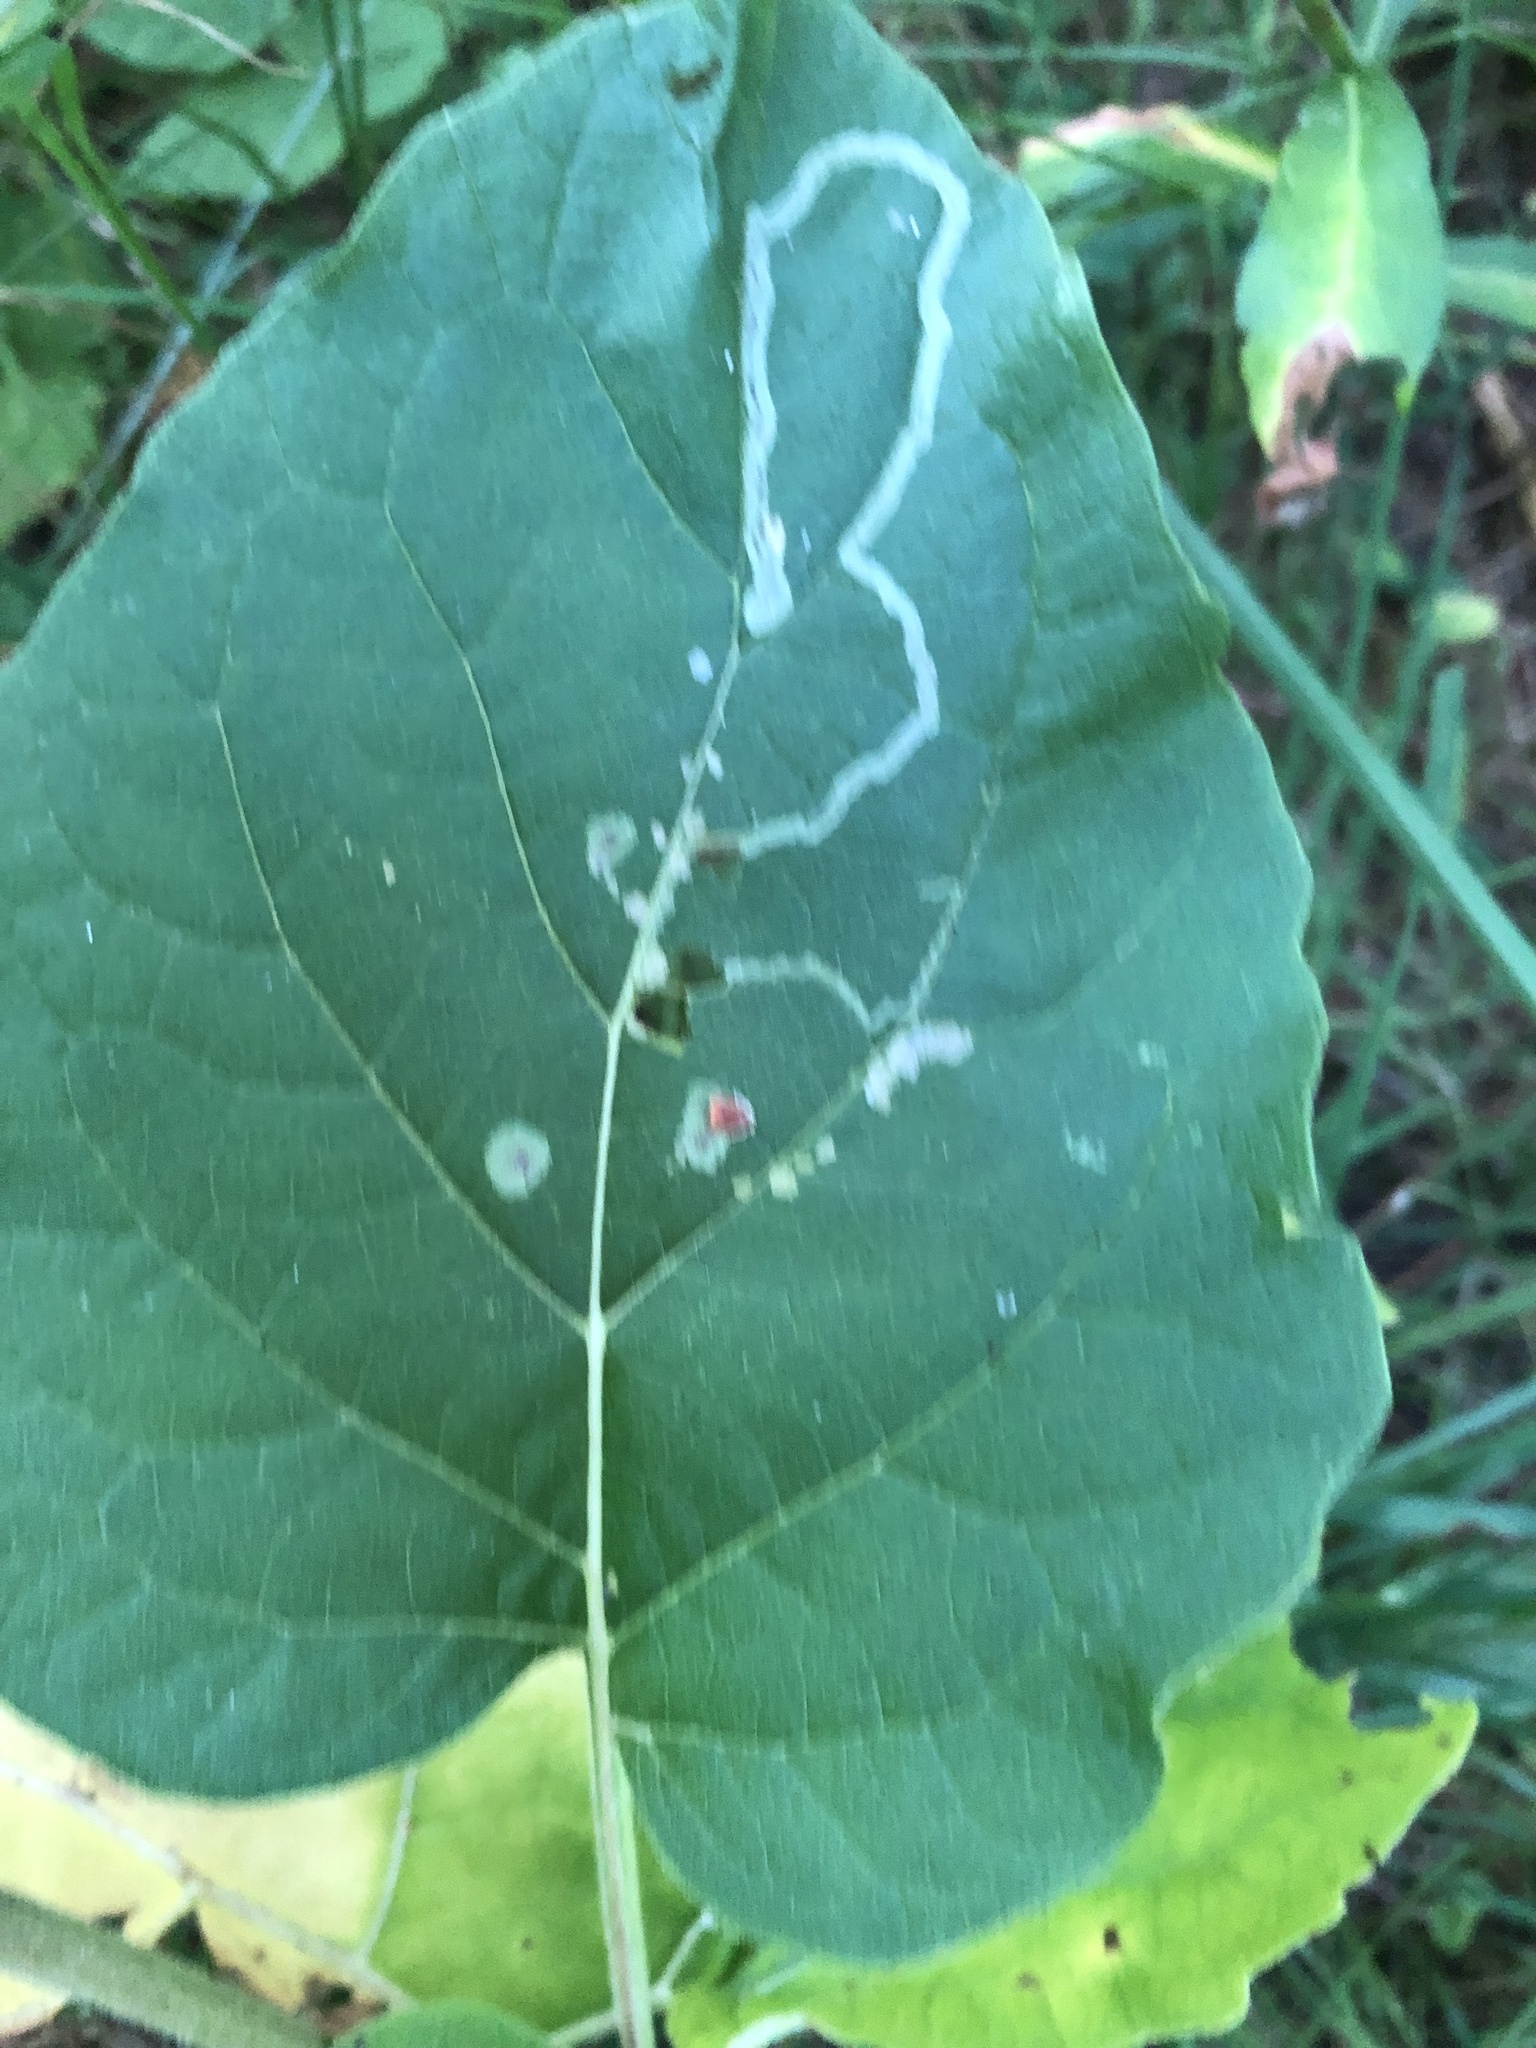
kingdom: Animalia
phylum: Arthropoda
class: Insecta
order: Diptera
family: Agromyzidae
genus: Liriomyza
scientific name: Liriomyza arctii
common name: Burdock leafminer
